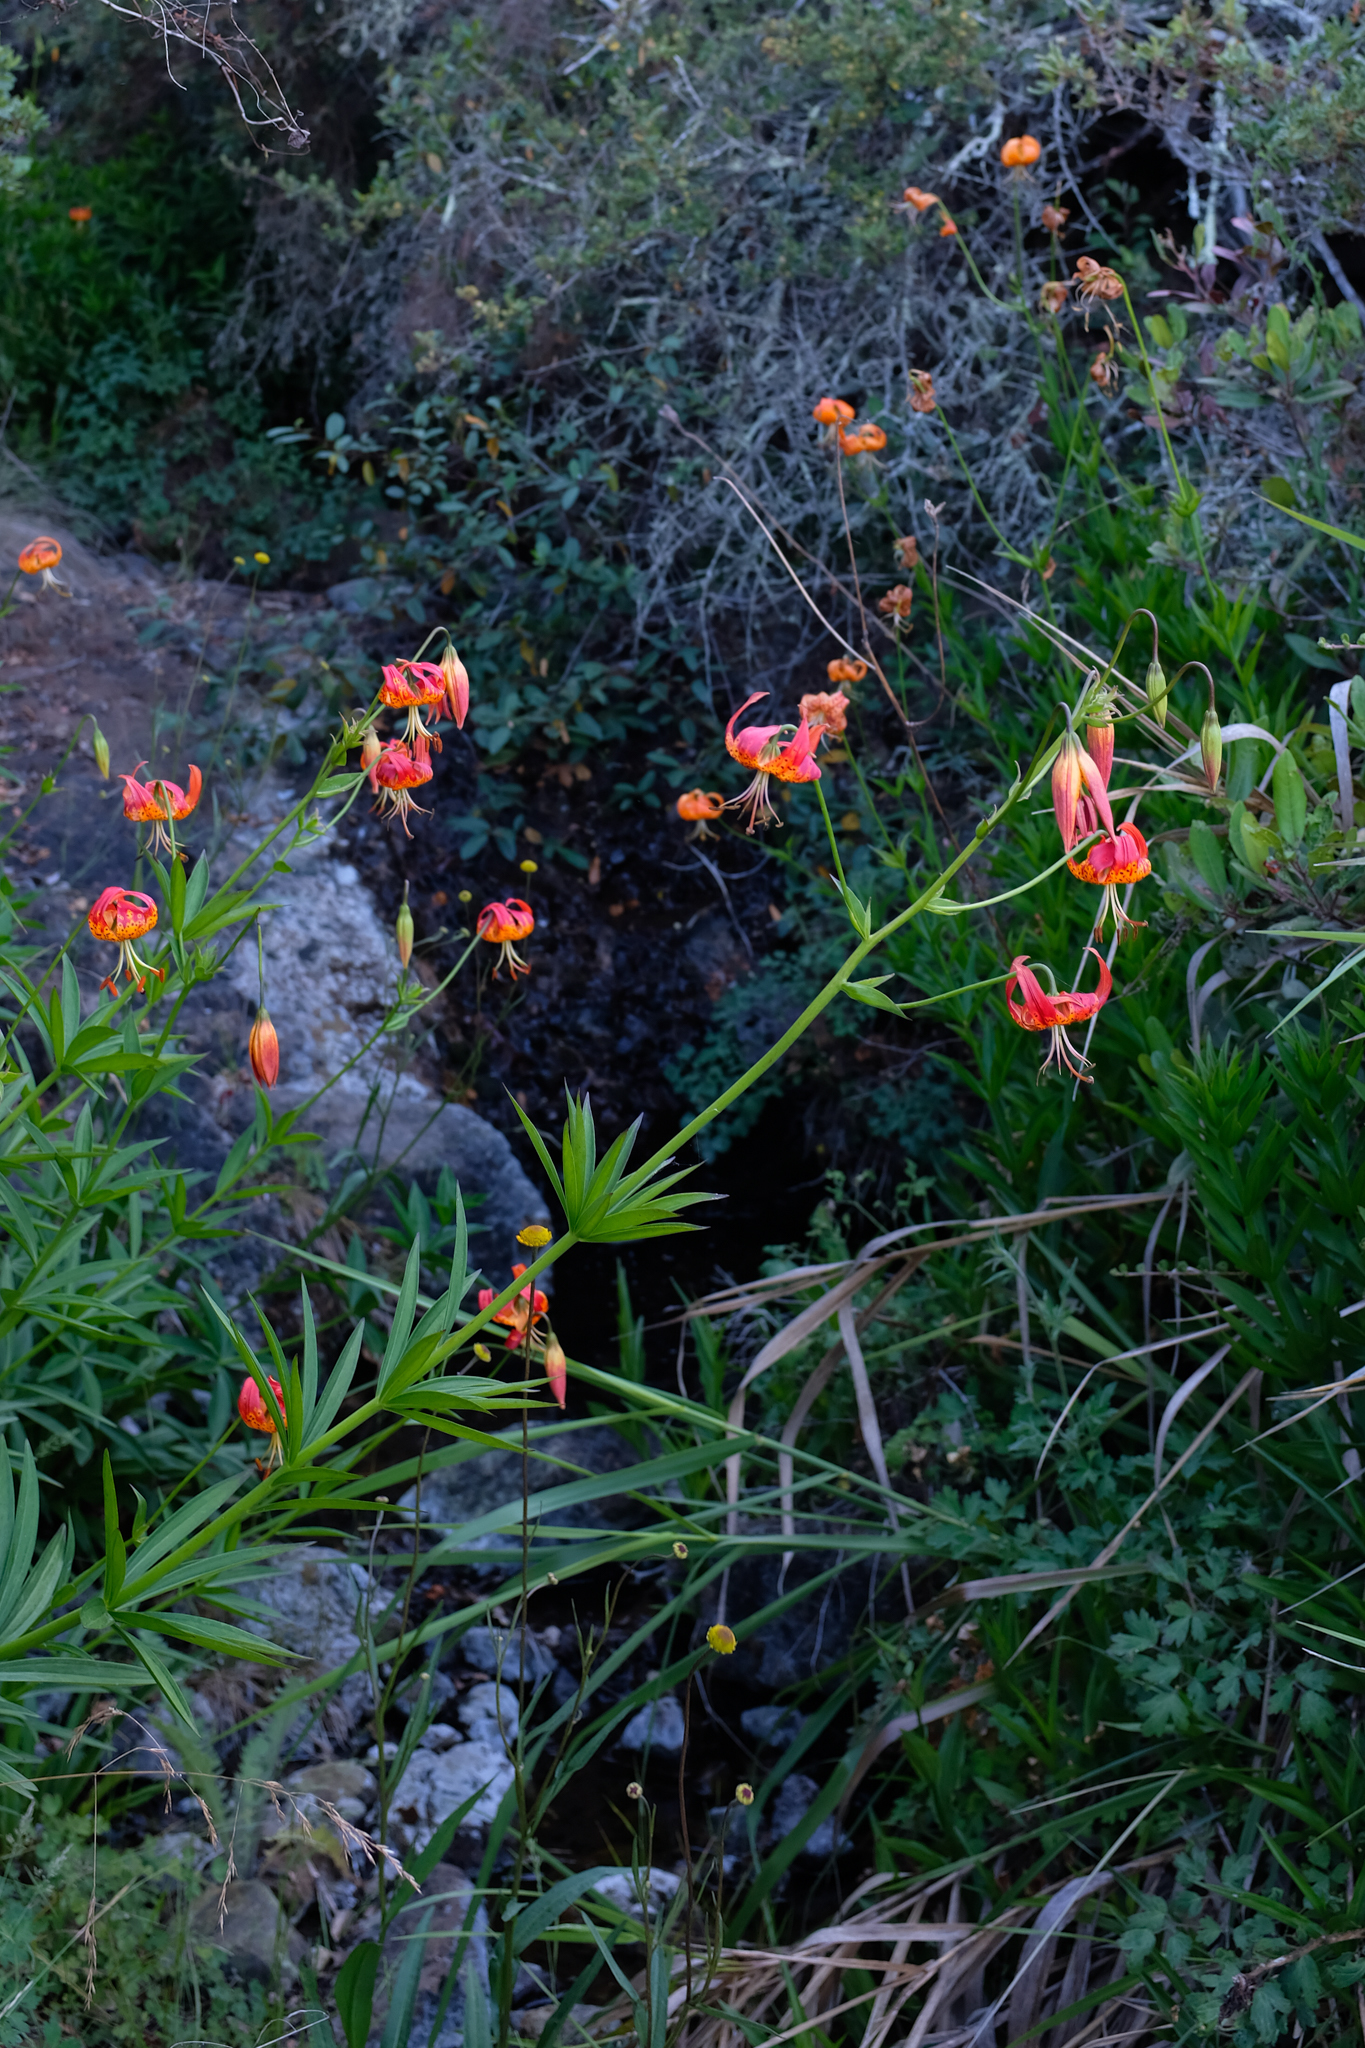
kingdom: Plantae
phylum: Tracheophyta
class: Liliopsida
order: Liliales
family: Liliaceae
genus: Lilium
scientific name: Lilium pardalinum
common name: Panther lily
